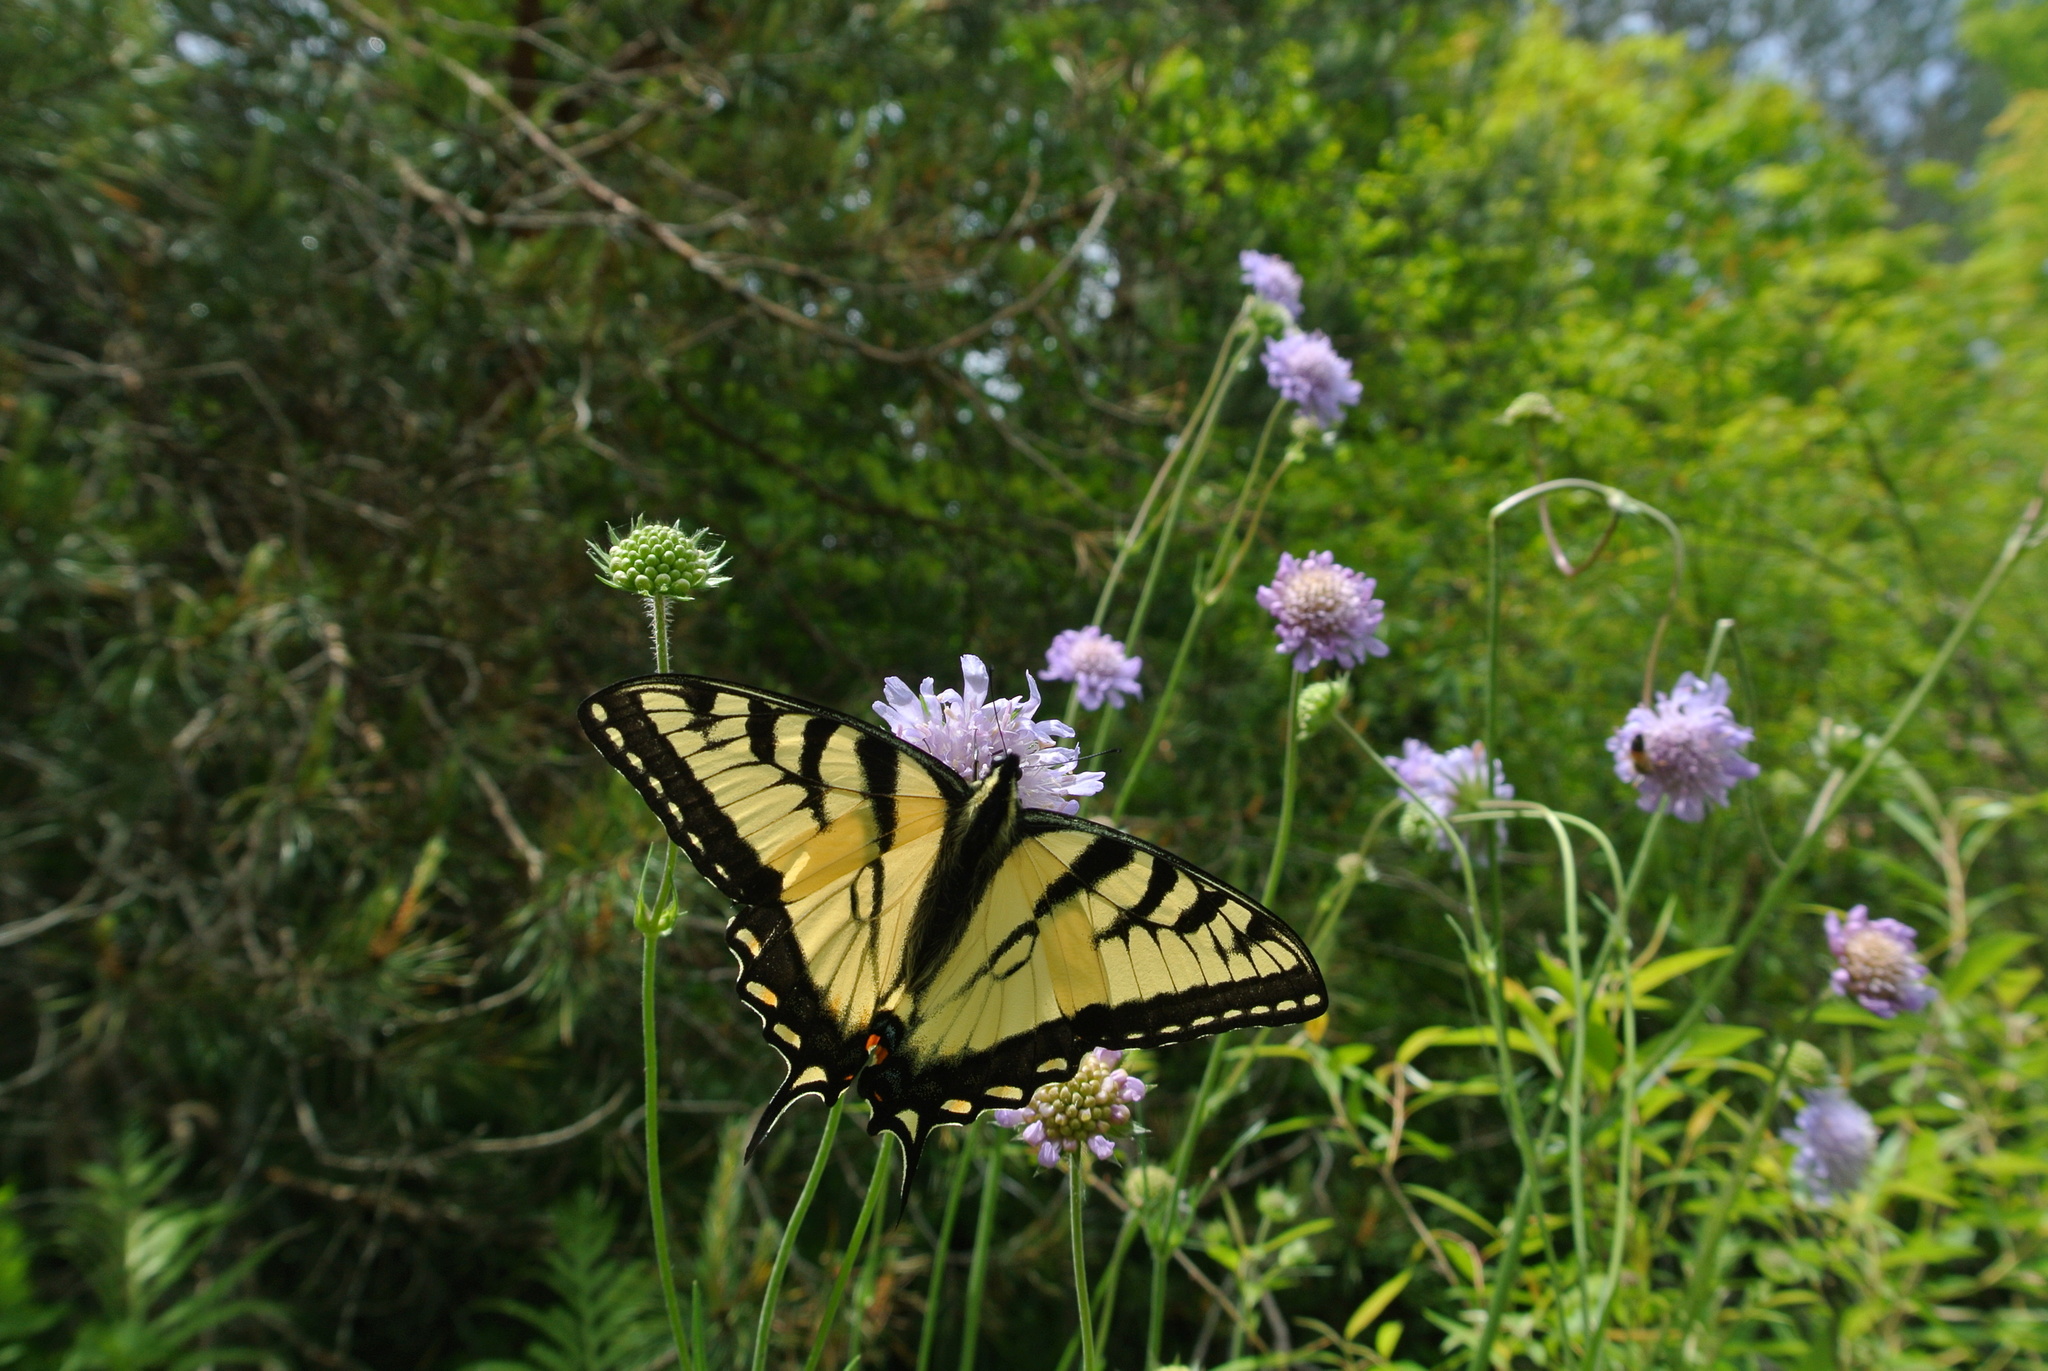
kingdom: Animalia
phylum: Arthropoda
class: Insecta
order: Lepidoptera
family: Papilionidae
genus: Papilio
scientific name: Papilio glaucus
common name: Tiger swallowtail
